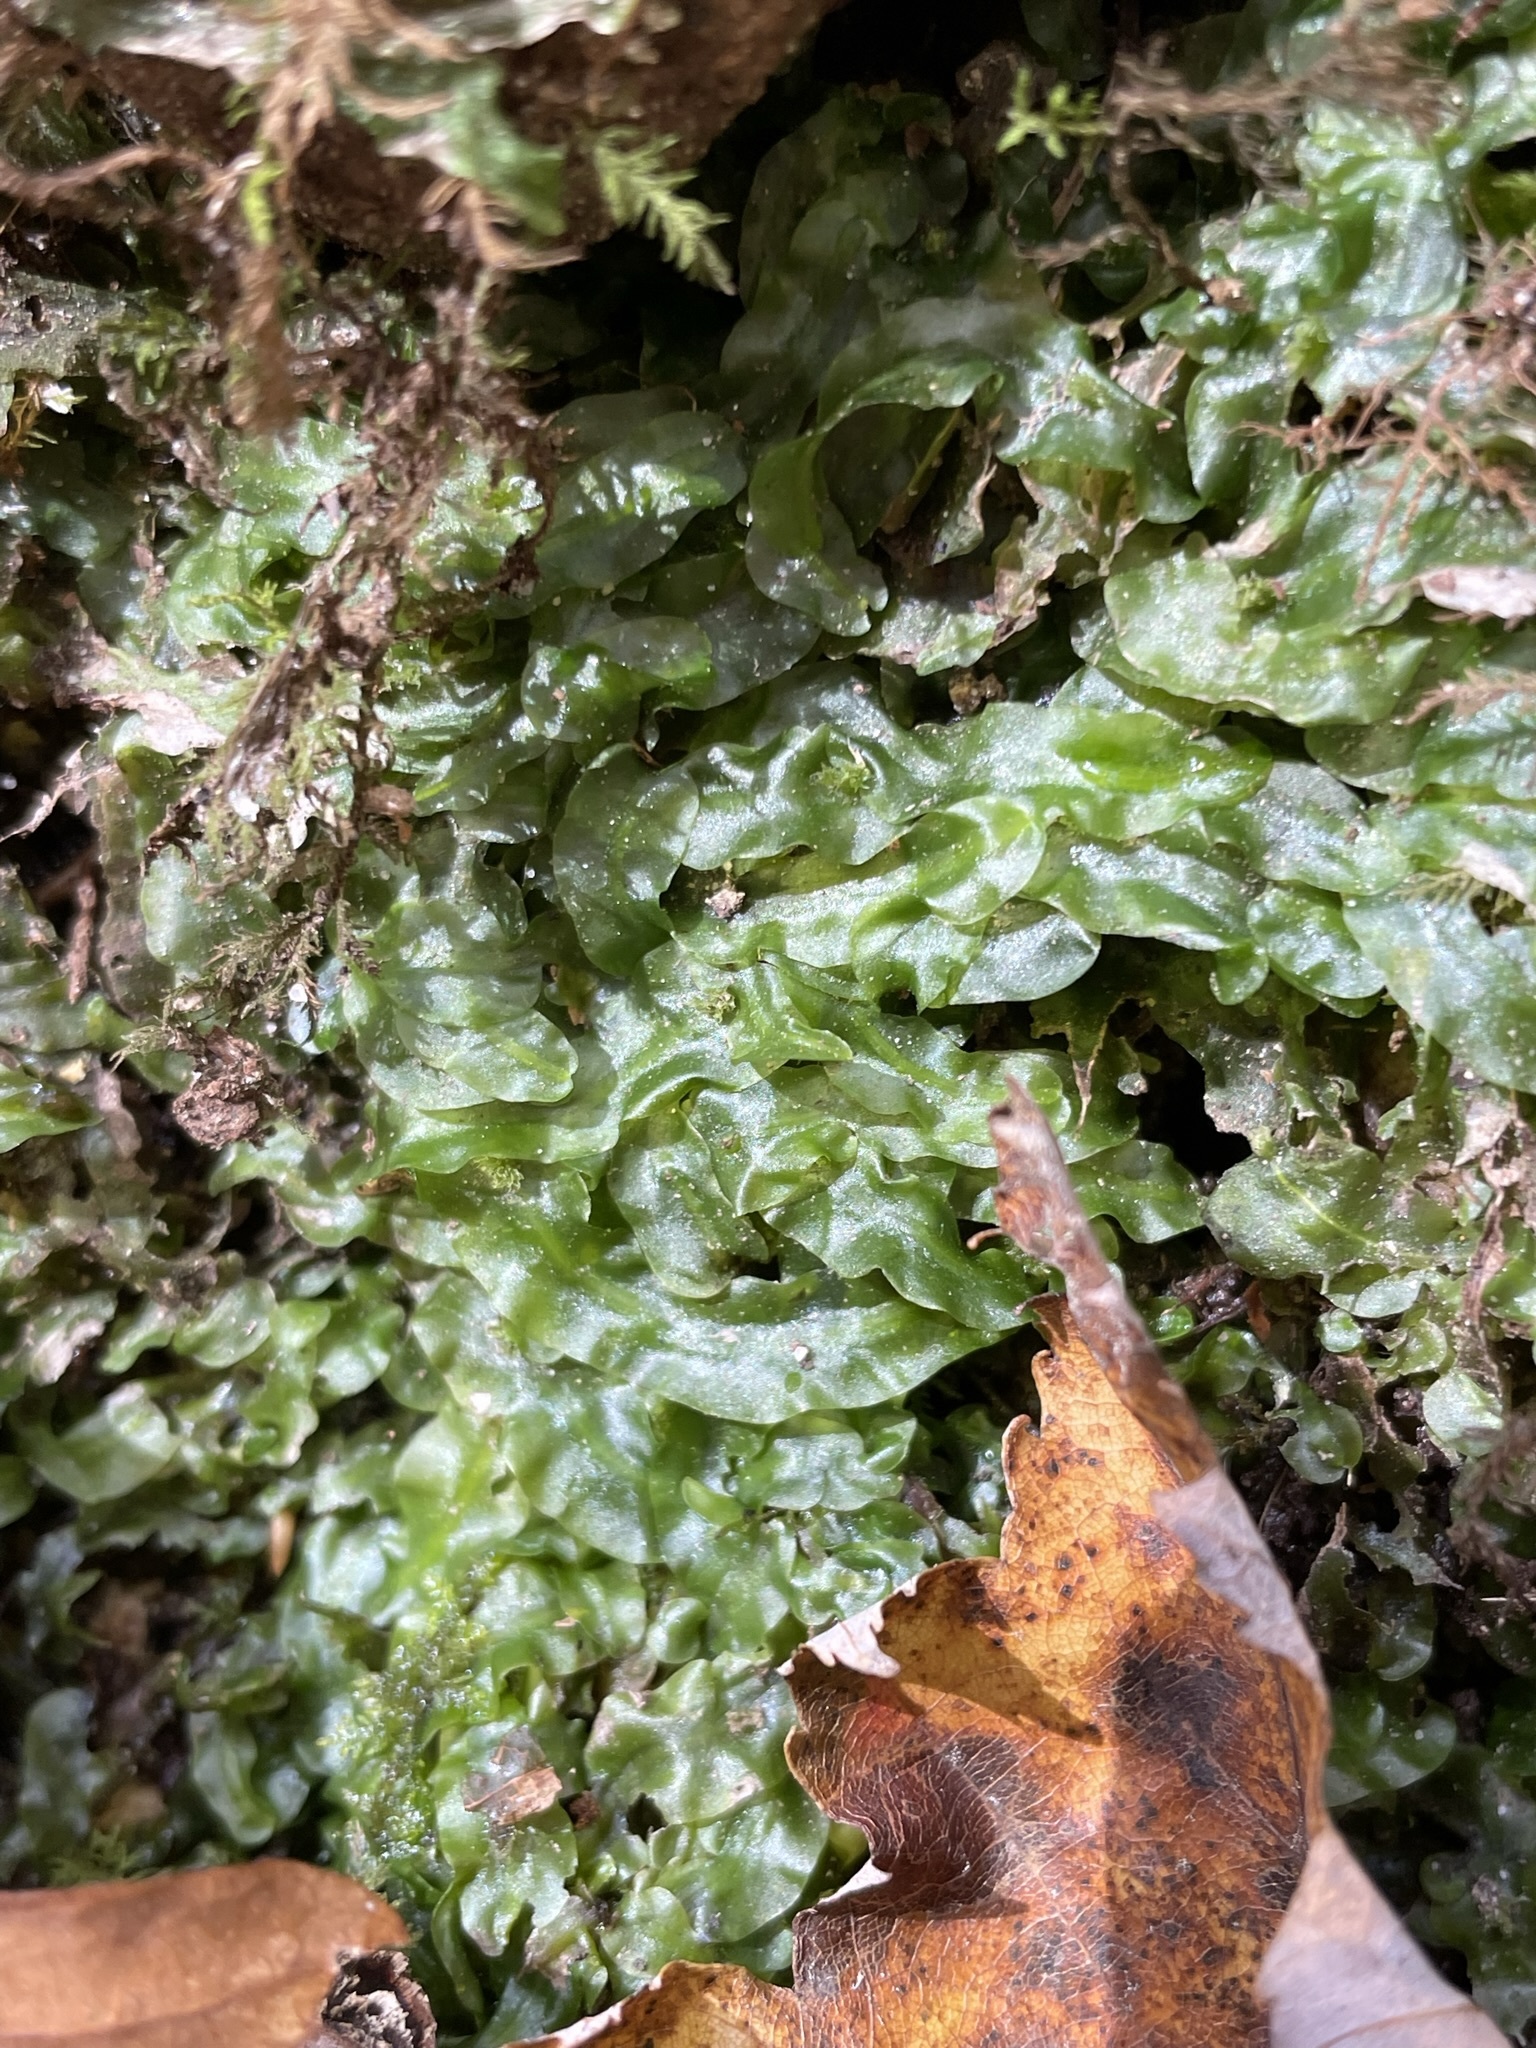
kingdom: Plantae
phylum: Marchantiophyta
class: Jungermanniopsida
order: Pallaviciniales
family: Pallaviciniaceae
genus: Pallavicinia
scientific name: Pallavicinia lyellii
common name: Veilwort
